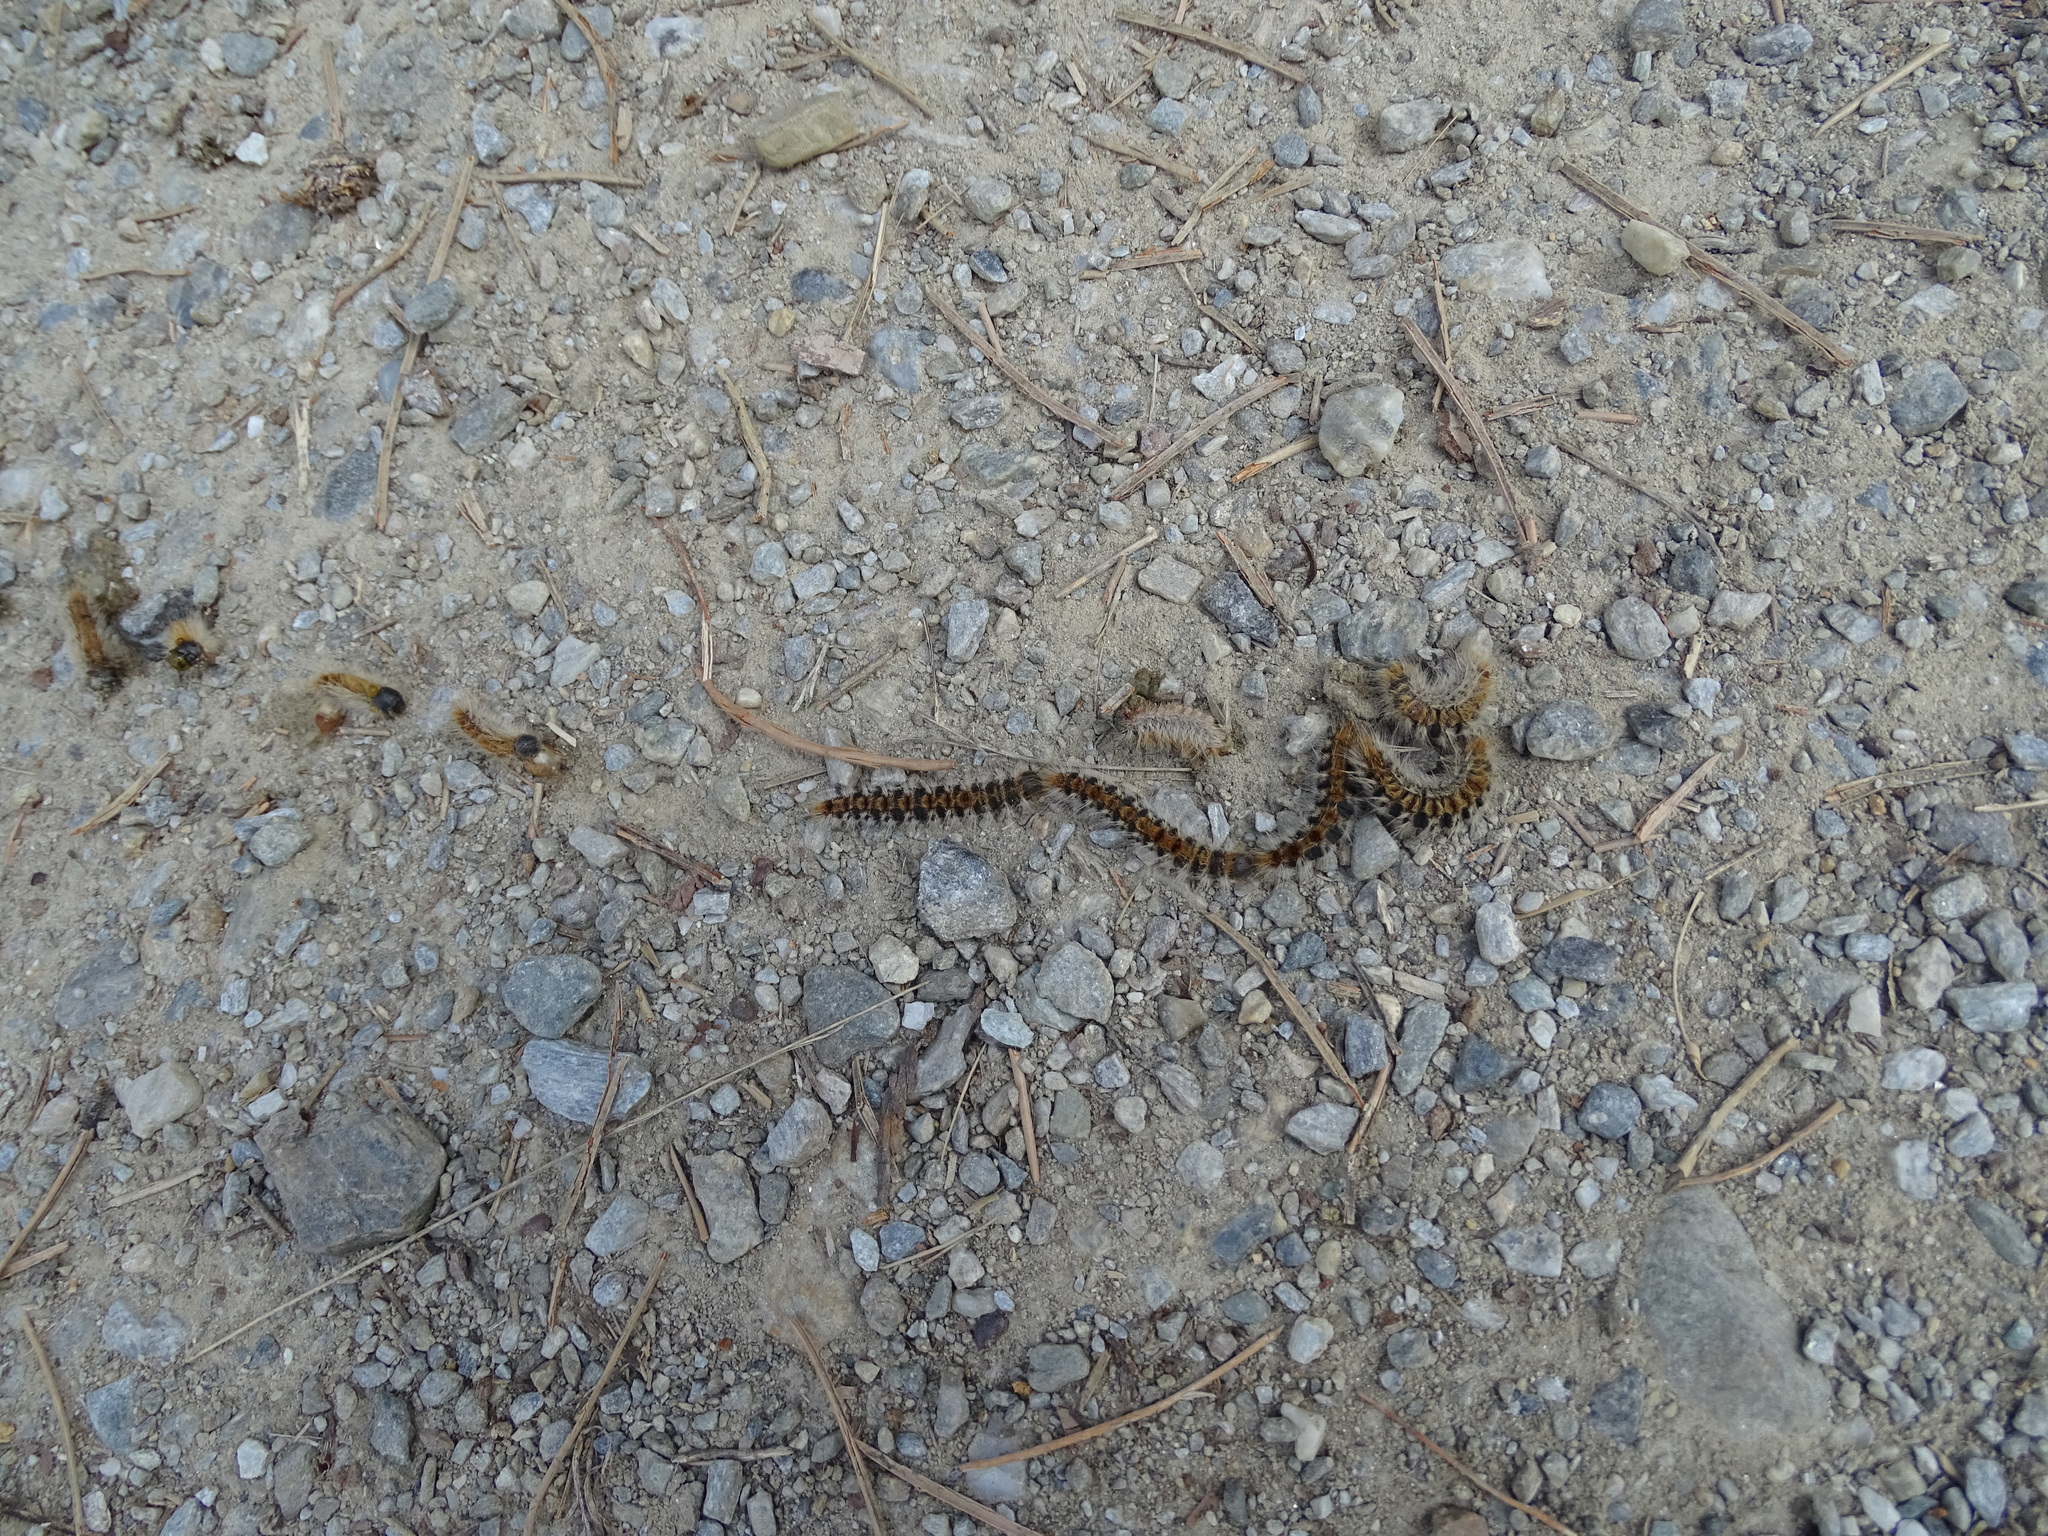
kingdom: Animalia
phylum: Arthropoda
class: Insecta
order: Lepidoptera
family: Notodontidae
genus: Thaumetopoea
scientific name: Thaumetopoea pityocampa
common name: Pine processionary
